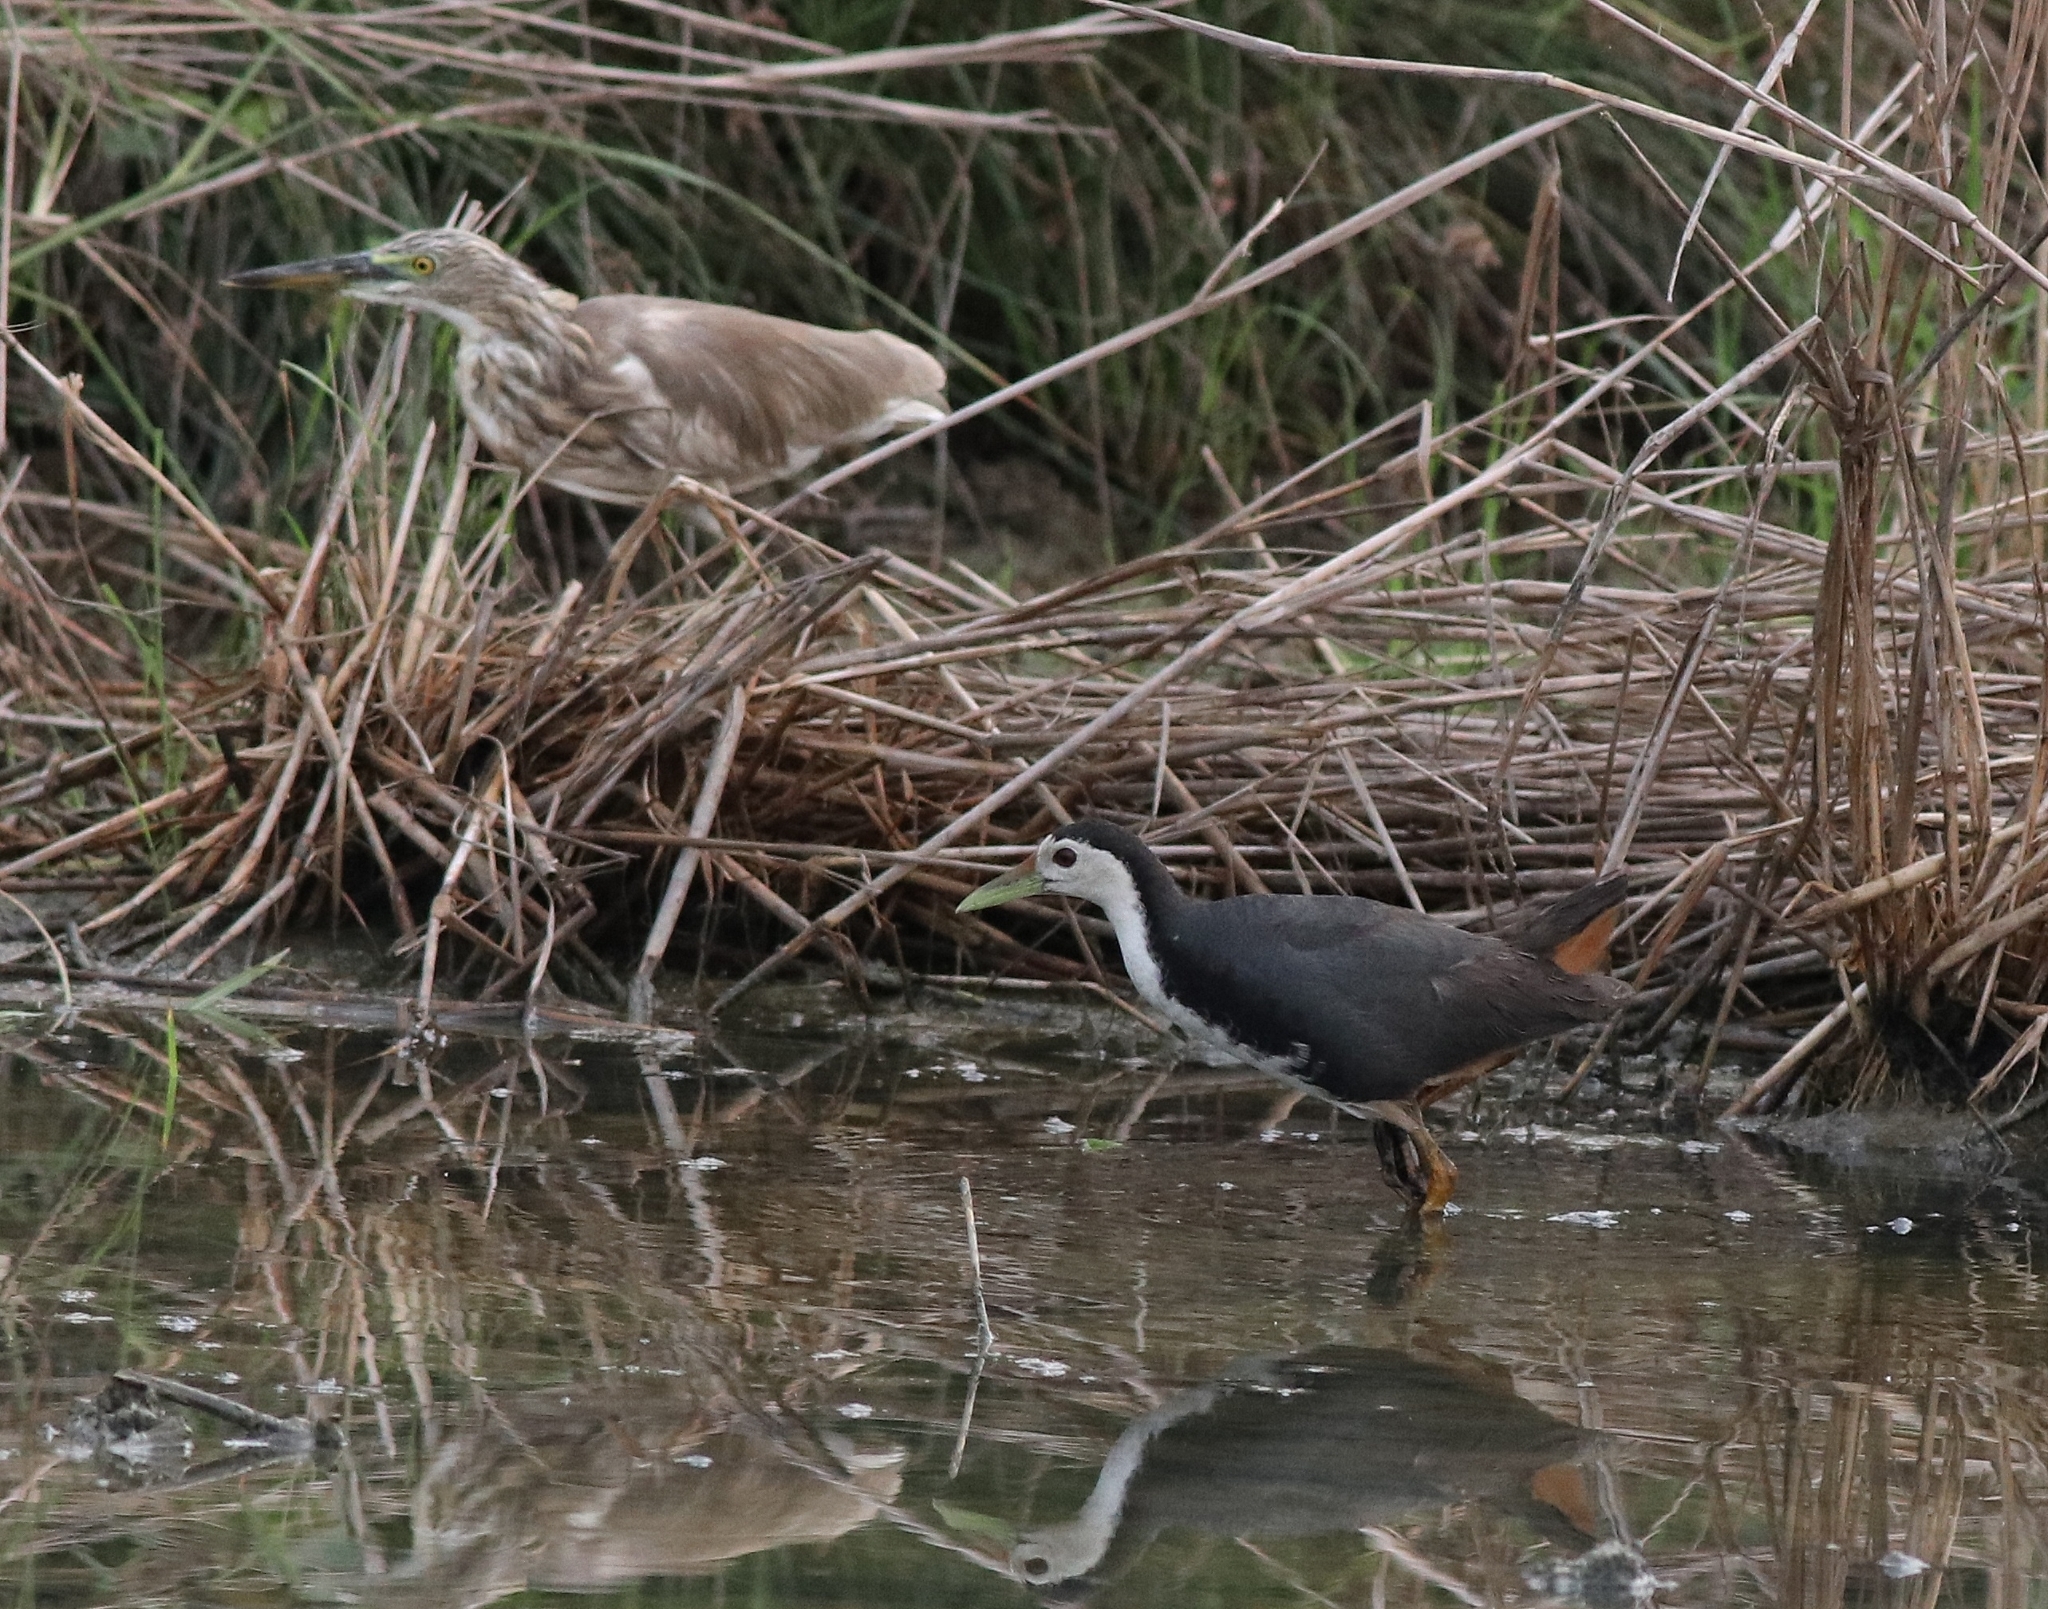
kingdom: Animalia
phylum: Chordata
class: Aves
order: Gruiformes
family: Rallidae
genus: Amaurornis
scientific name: Amaurornis phoenicurus
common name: White-breasted waterhen
